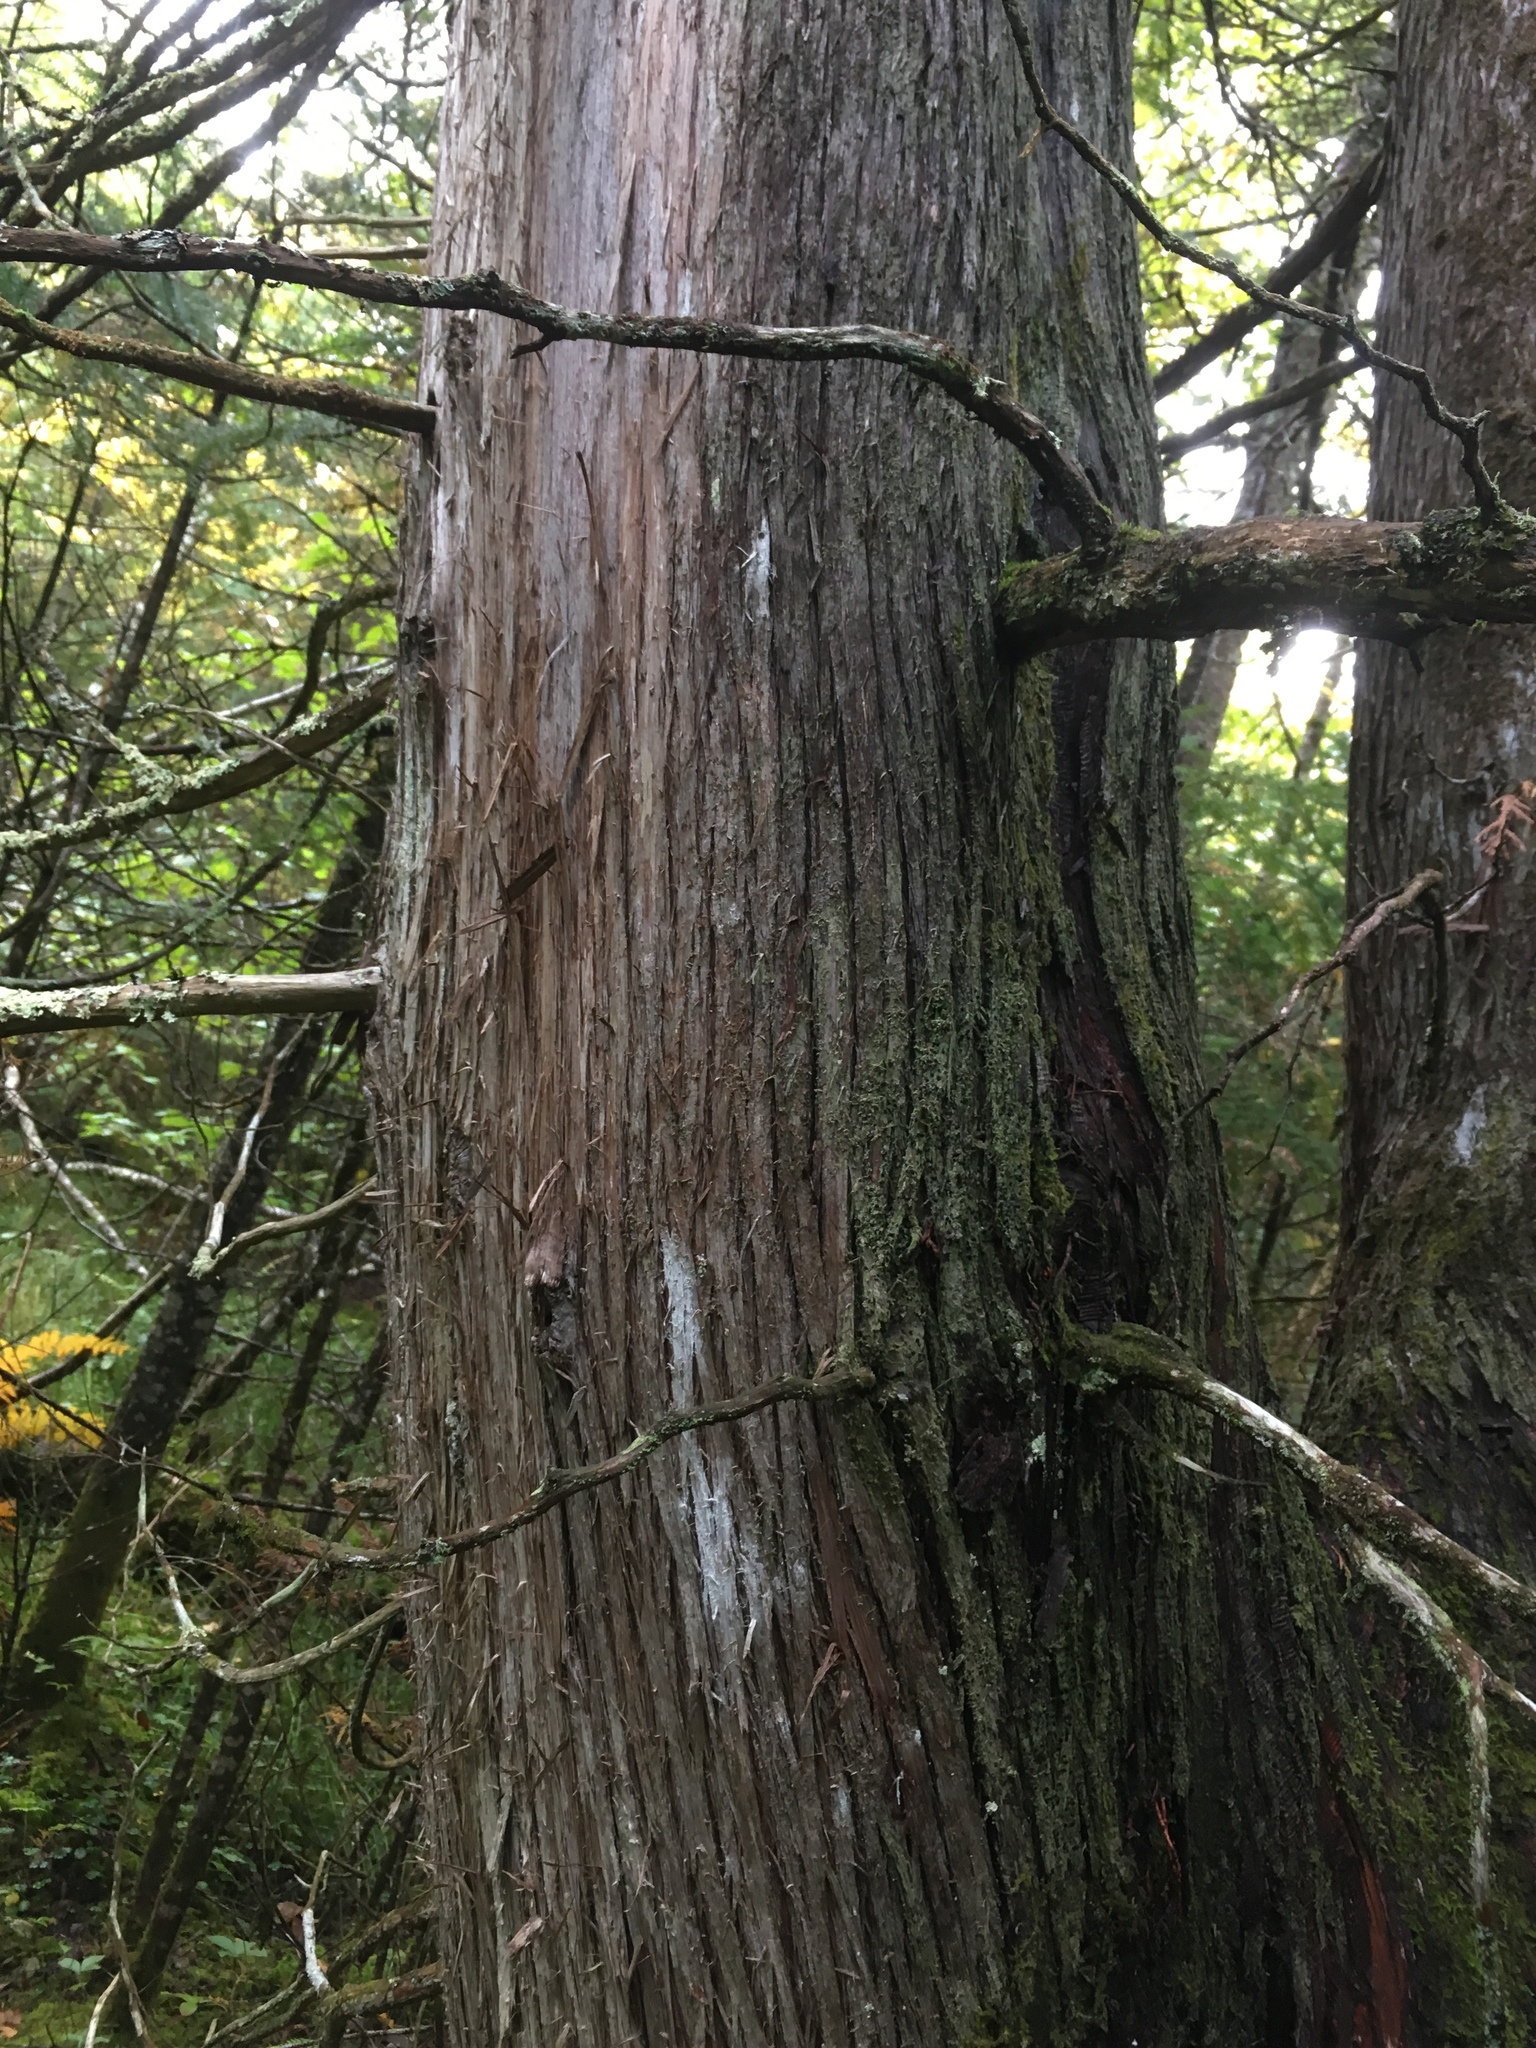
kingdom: Plantae
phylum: Tracheophyta
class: Pinopsida
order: Pinales
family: Cupressaceae
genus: Thuja
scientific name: Thuja occidentalis
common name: Northern white-cedar
